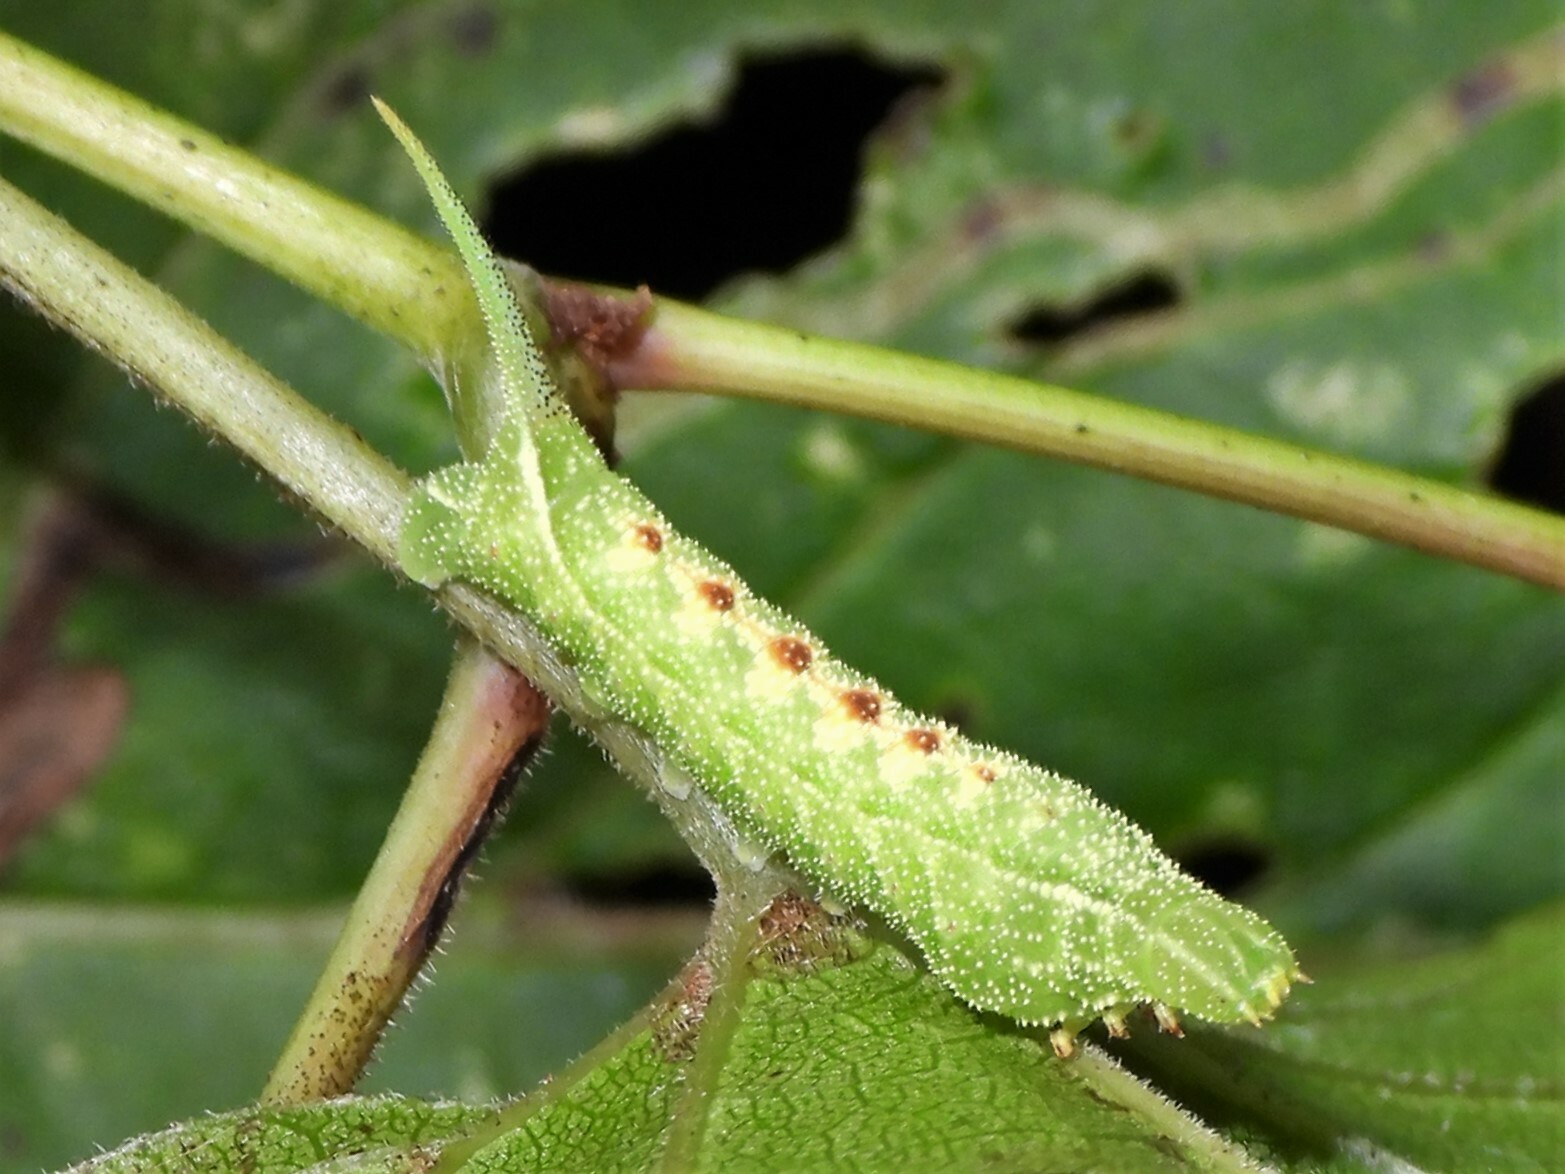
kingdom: Animalia
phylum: Arthropoda
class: Insecta
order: Lepidoptera
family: Sphingidae
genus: Darapsa
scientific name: Darapsa myron
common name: Hog sphinx
